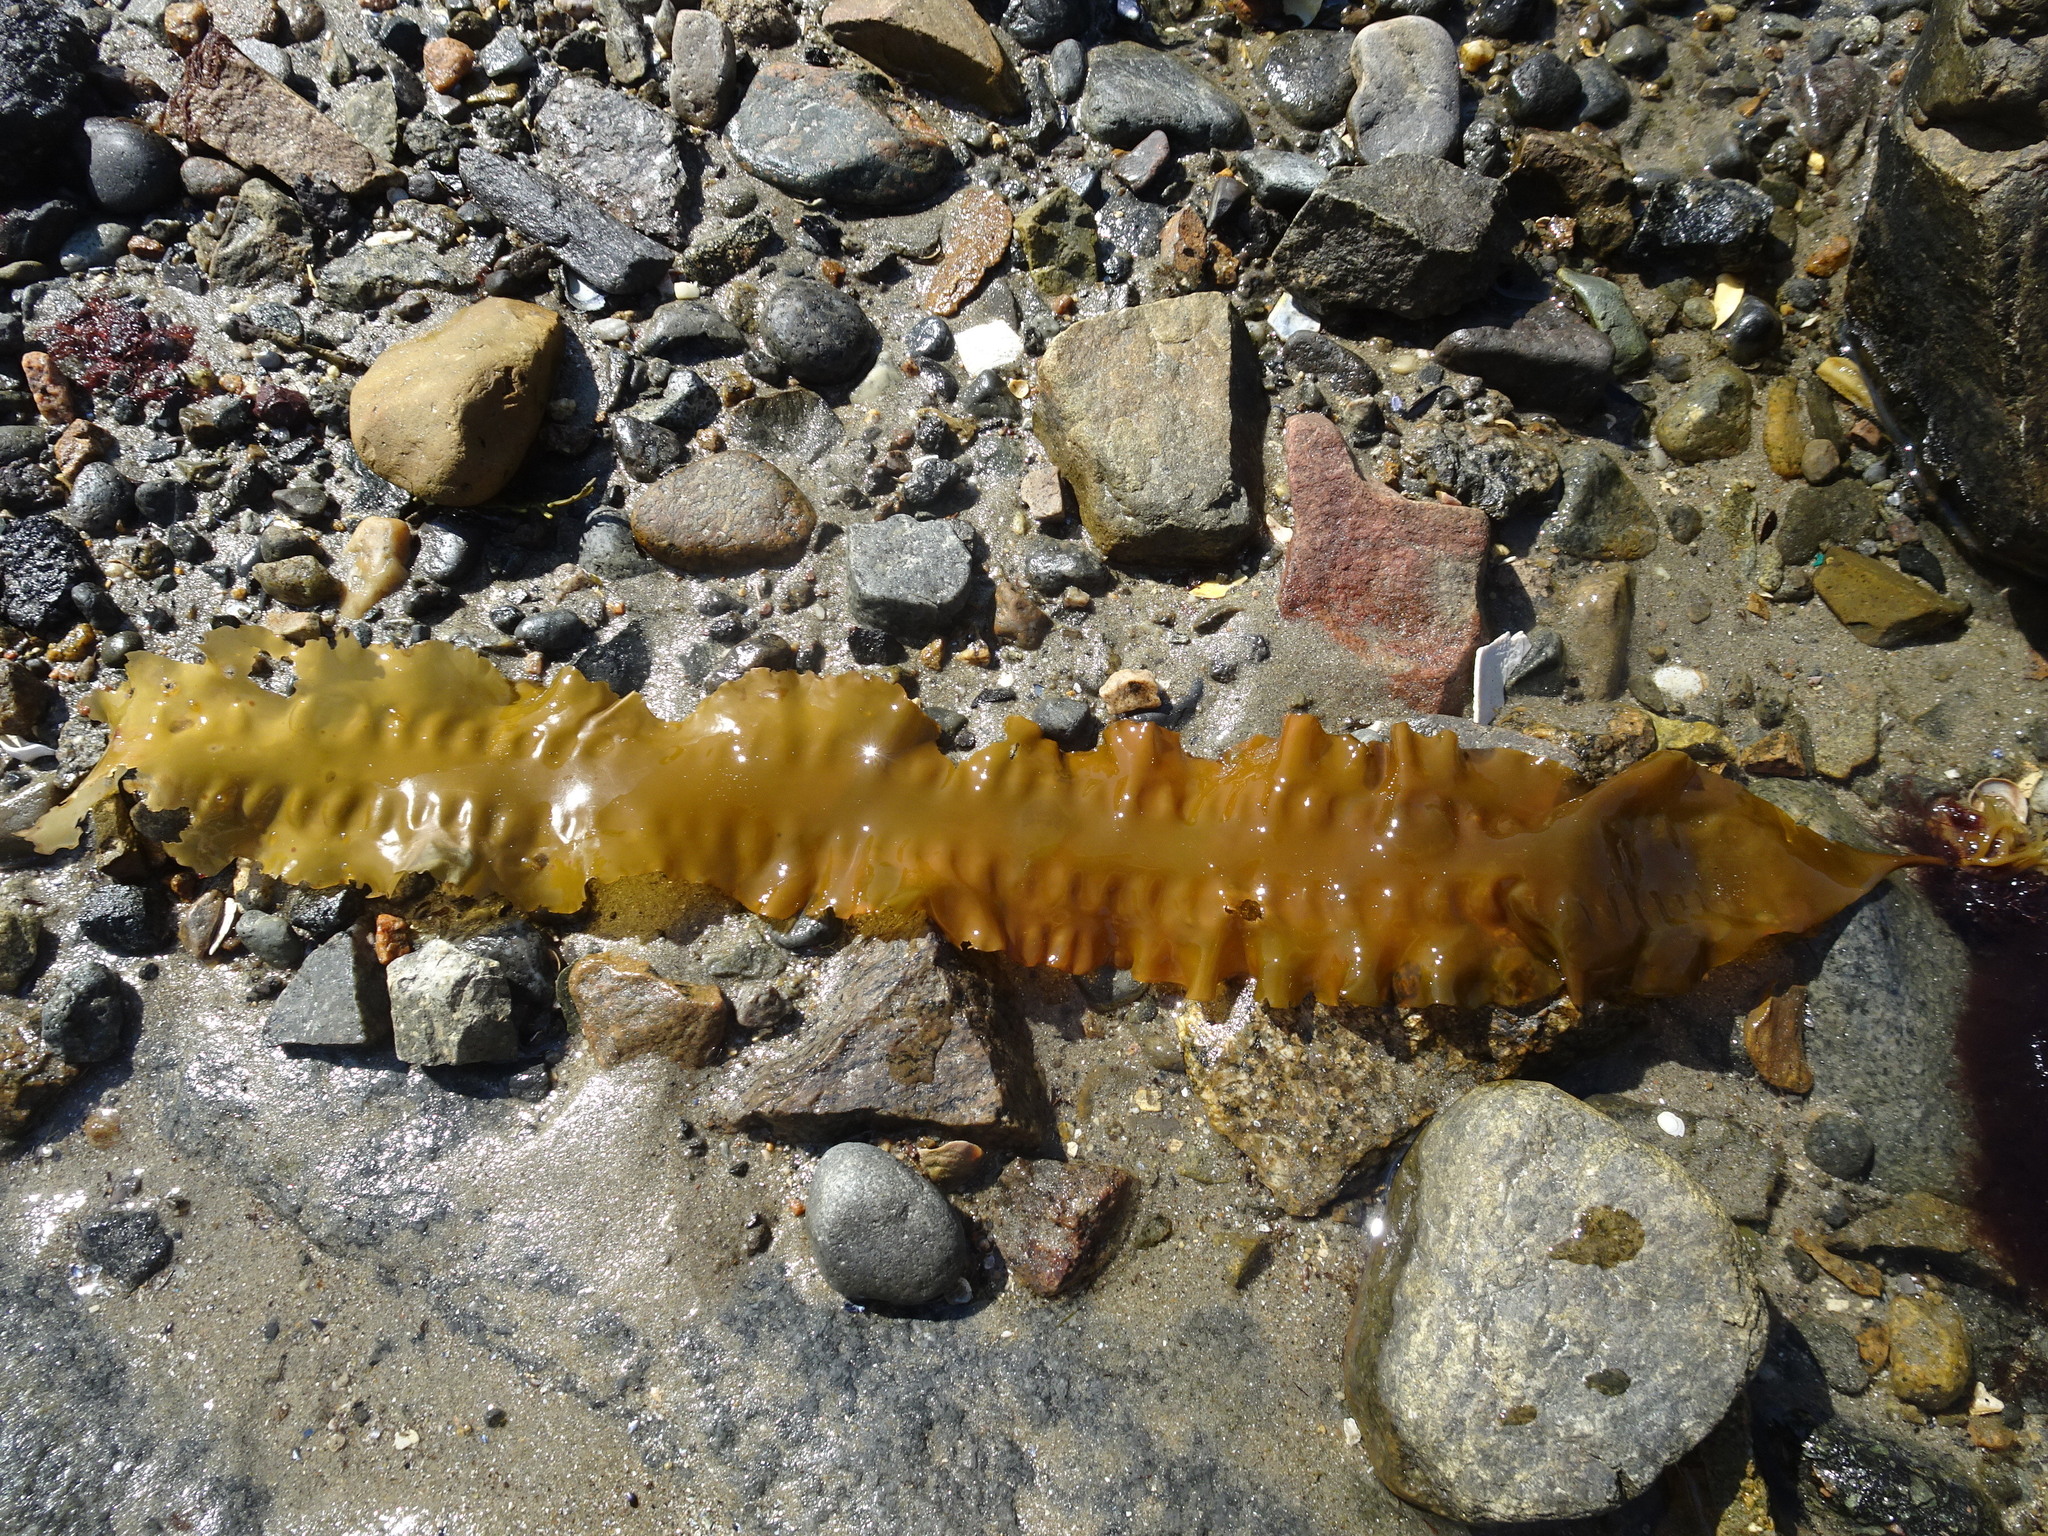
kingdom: Chromista
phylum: Ochrophyta
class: Phaeophyceae
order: Laminariales
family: Laminariaceae
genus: Saccharina
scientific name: Saccharina latissima
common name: Poor man's weather glass
